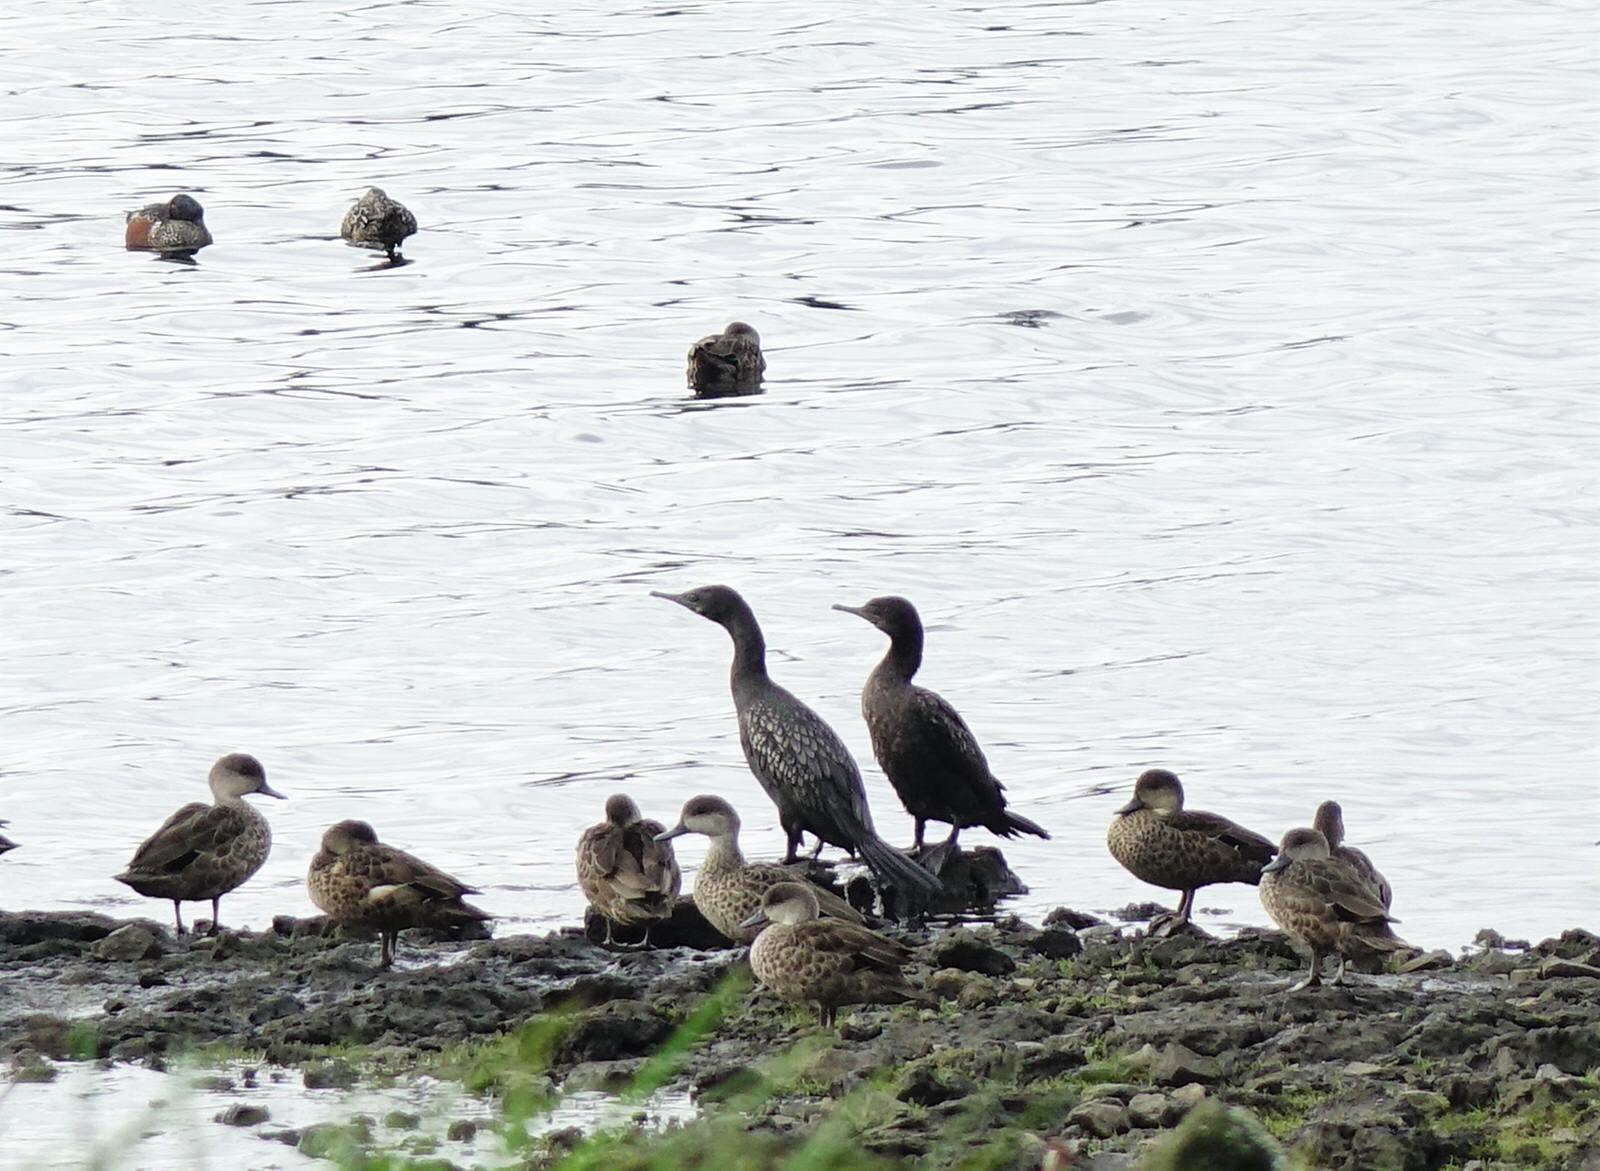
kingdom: Animalia
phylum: Chordata
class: Aves
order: Suliformes
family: Phalacrocoracidae
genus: Phalacrocorax
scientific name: Phalacrocorax sulcirostris
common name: Little black cormorant
